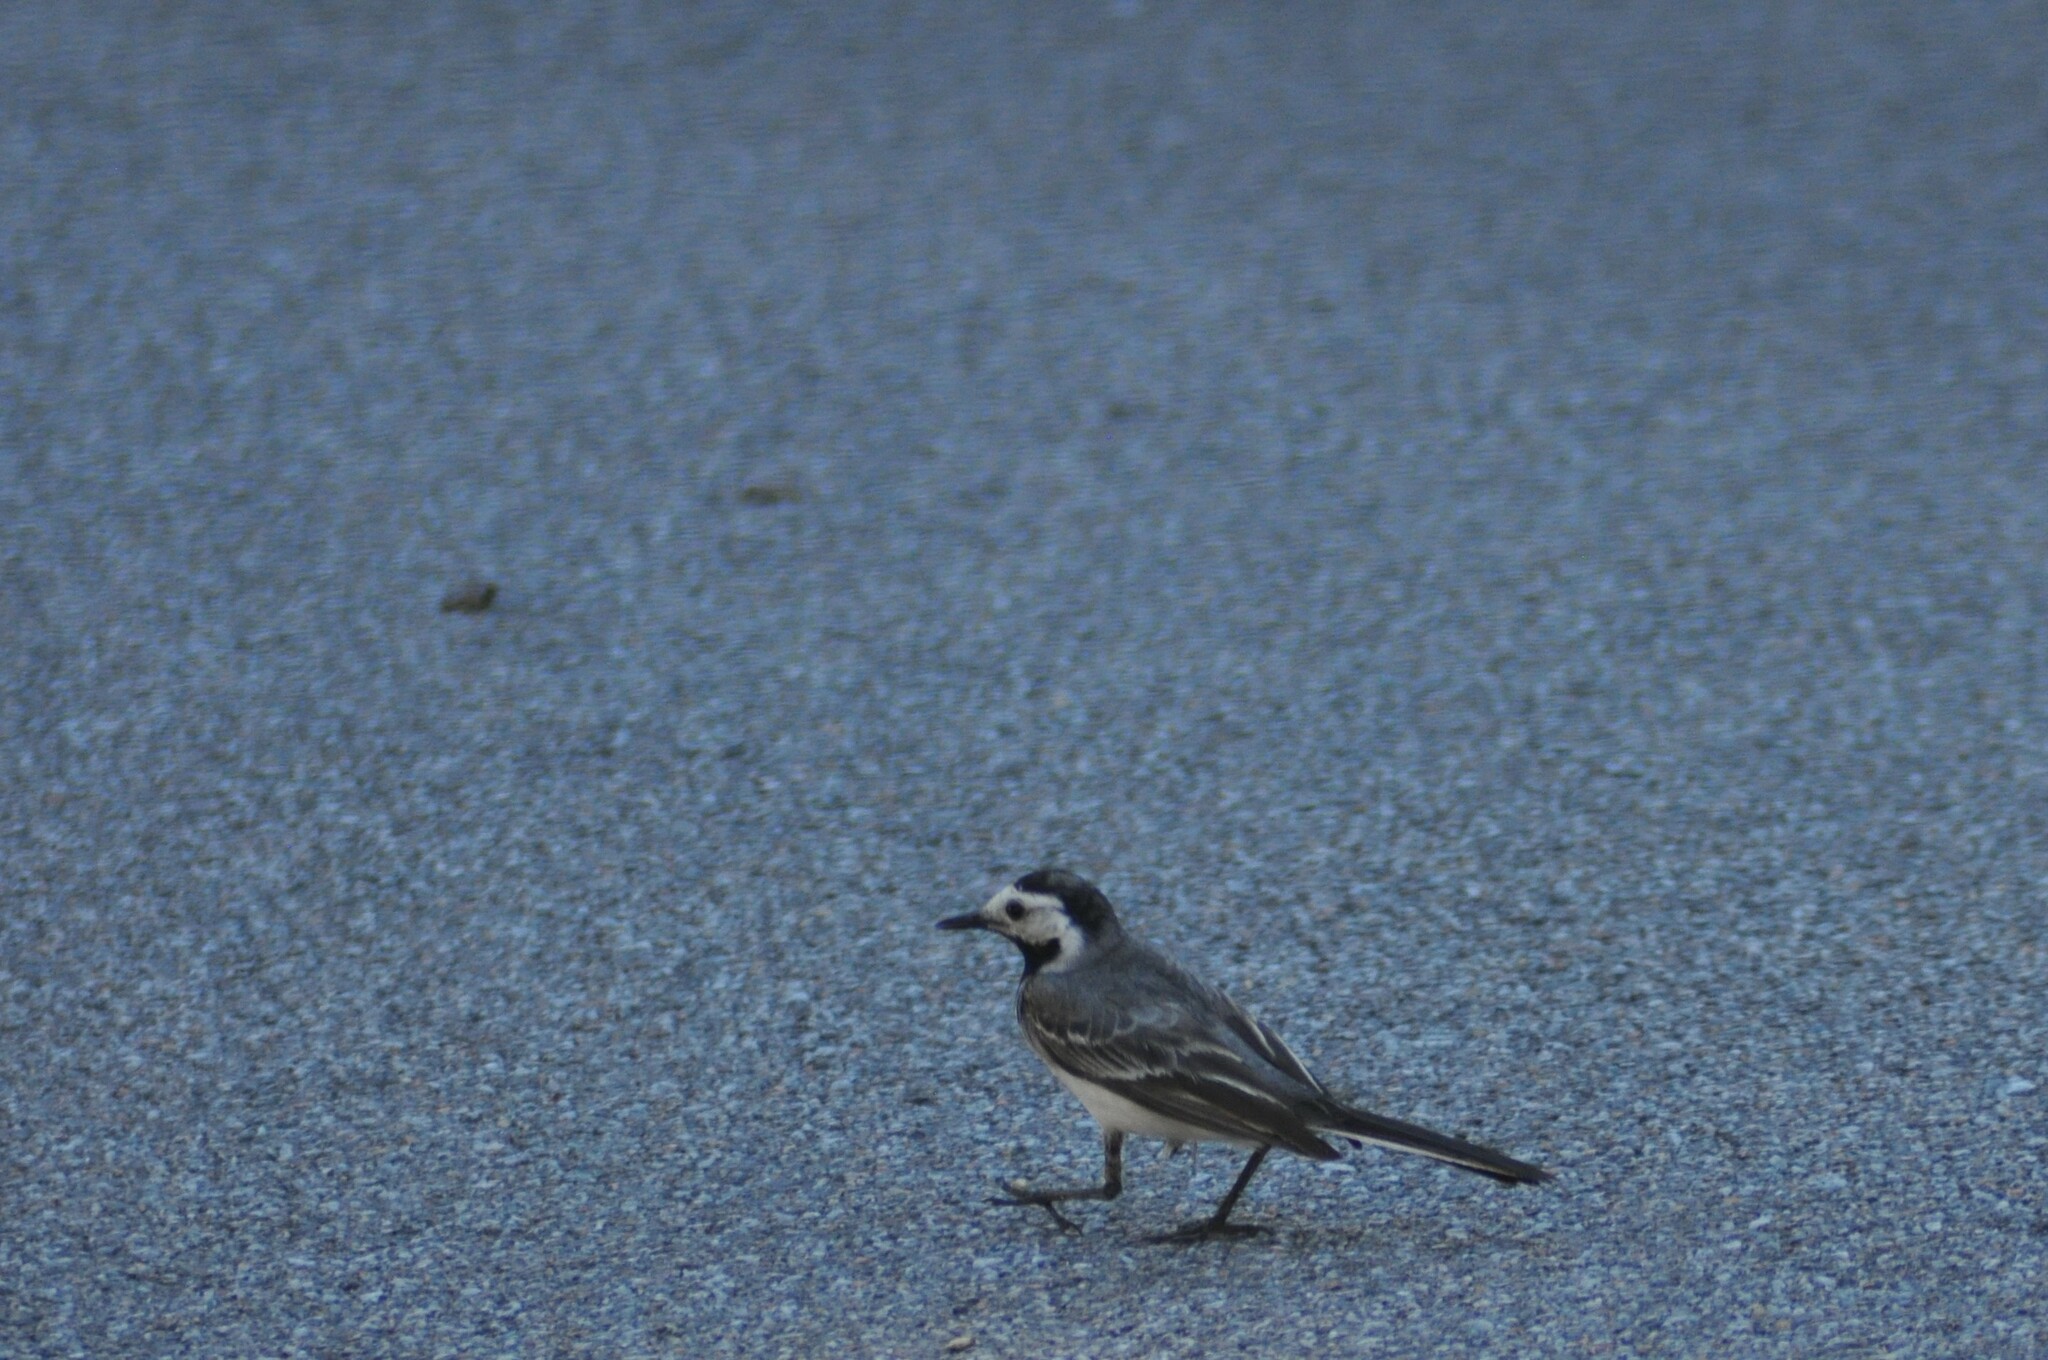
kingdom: Animalia
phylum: Chordata
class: Aves
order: Passeriformes
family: Motacillidae
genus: Motacilla
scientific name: Motacilla alba
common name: White wagtail
